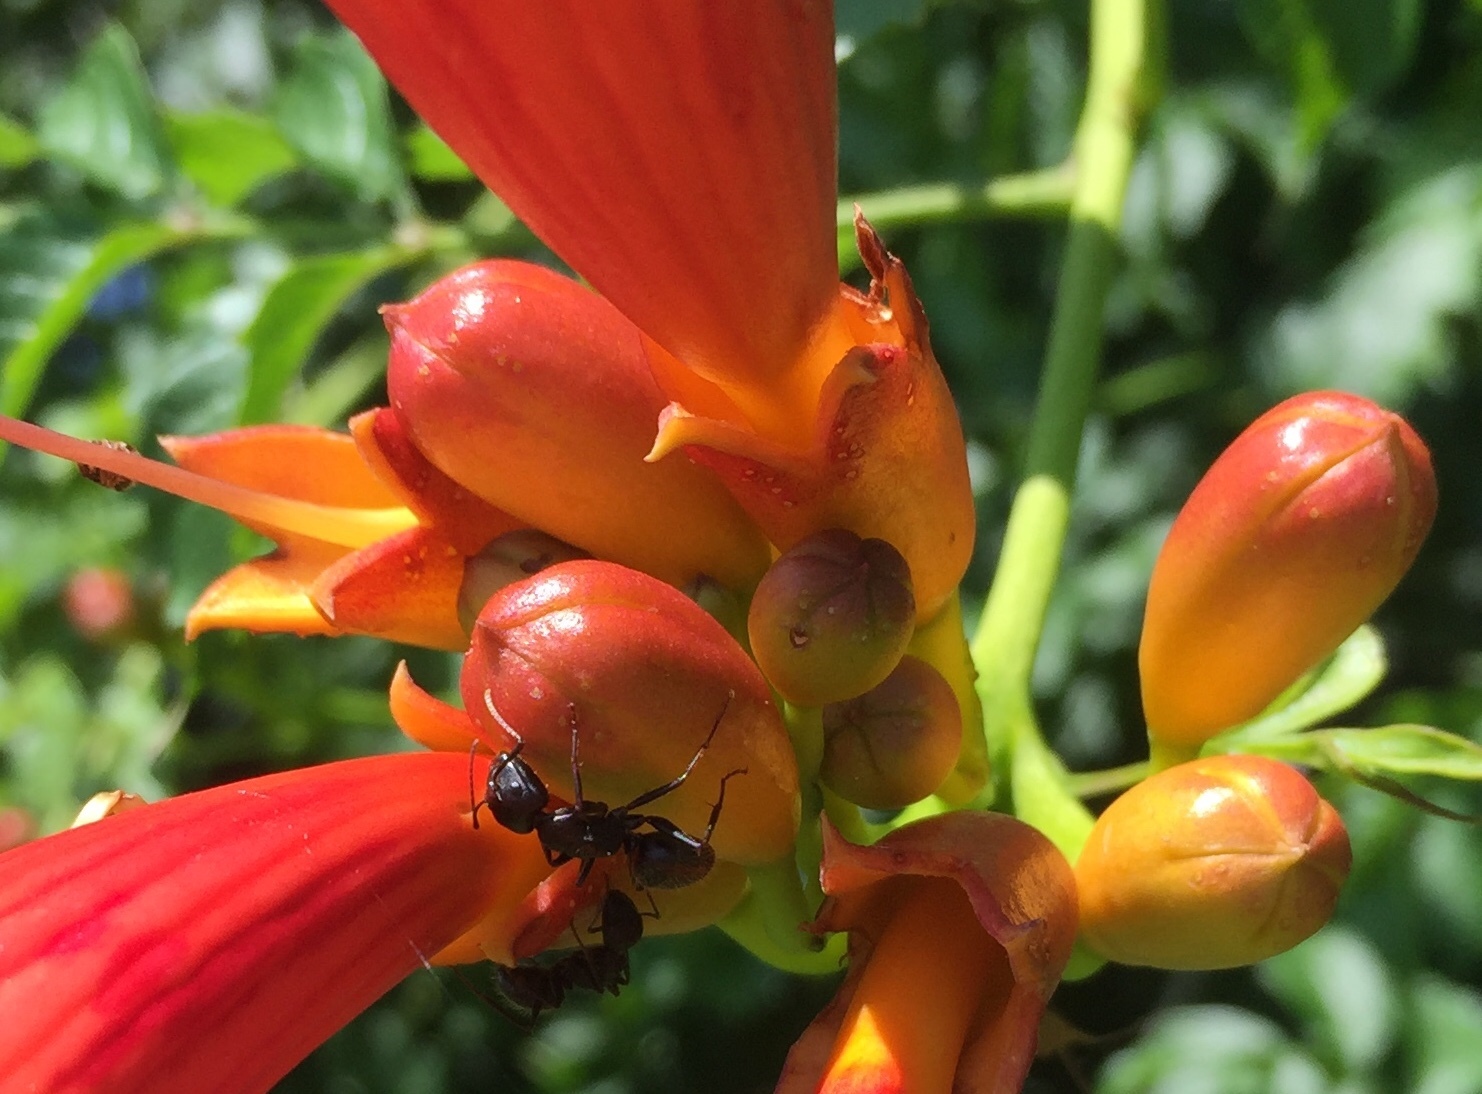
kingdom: Animalia
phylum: Arthropoda
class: Insecta
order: Hymenoptera
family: Formicidae
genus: Camponotus
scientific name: Camponotus pennsylvanicus
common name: Black carpenter ant
